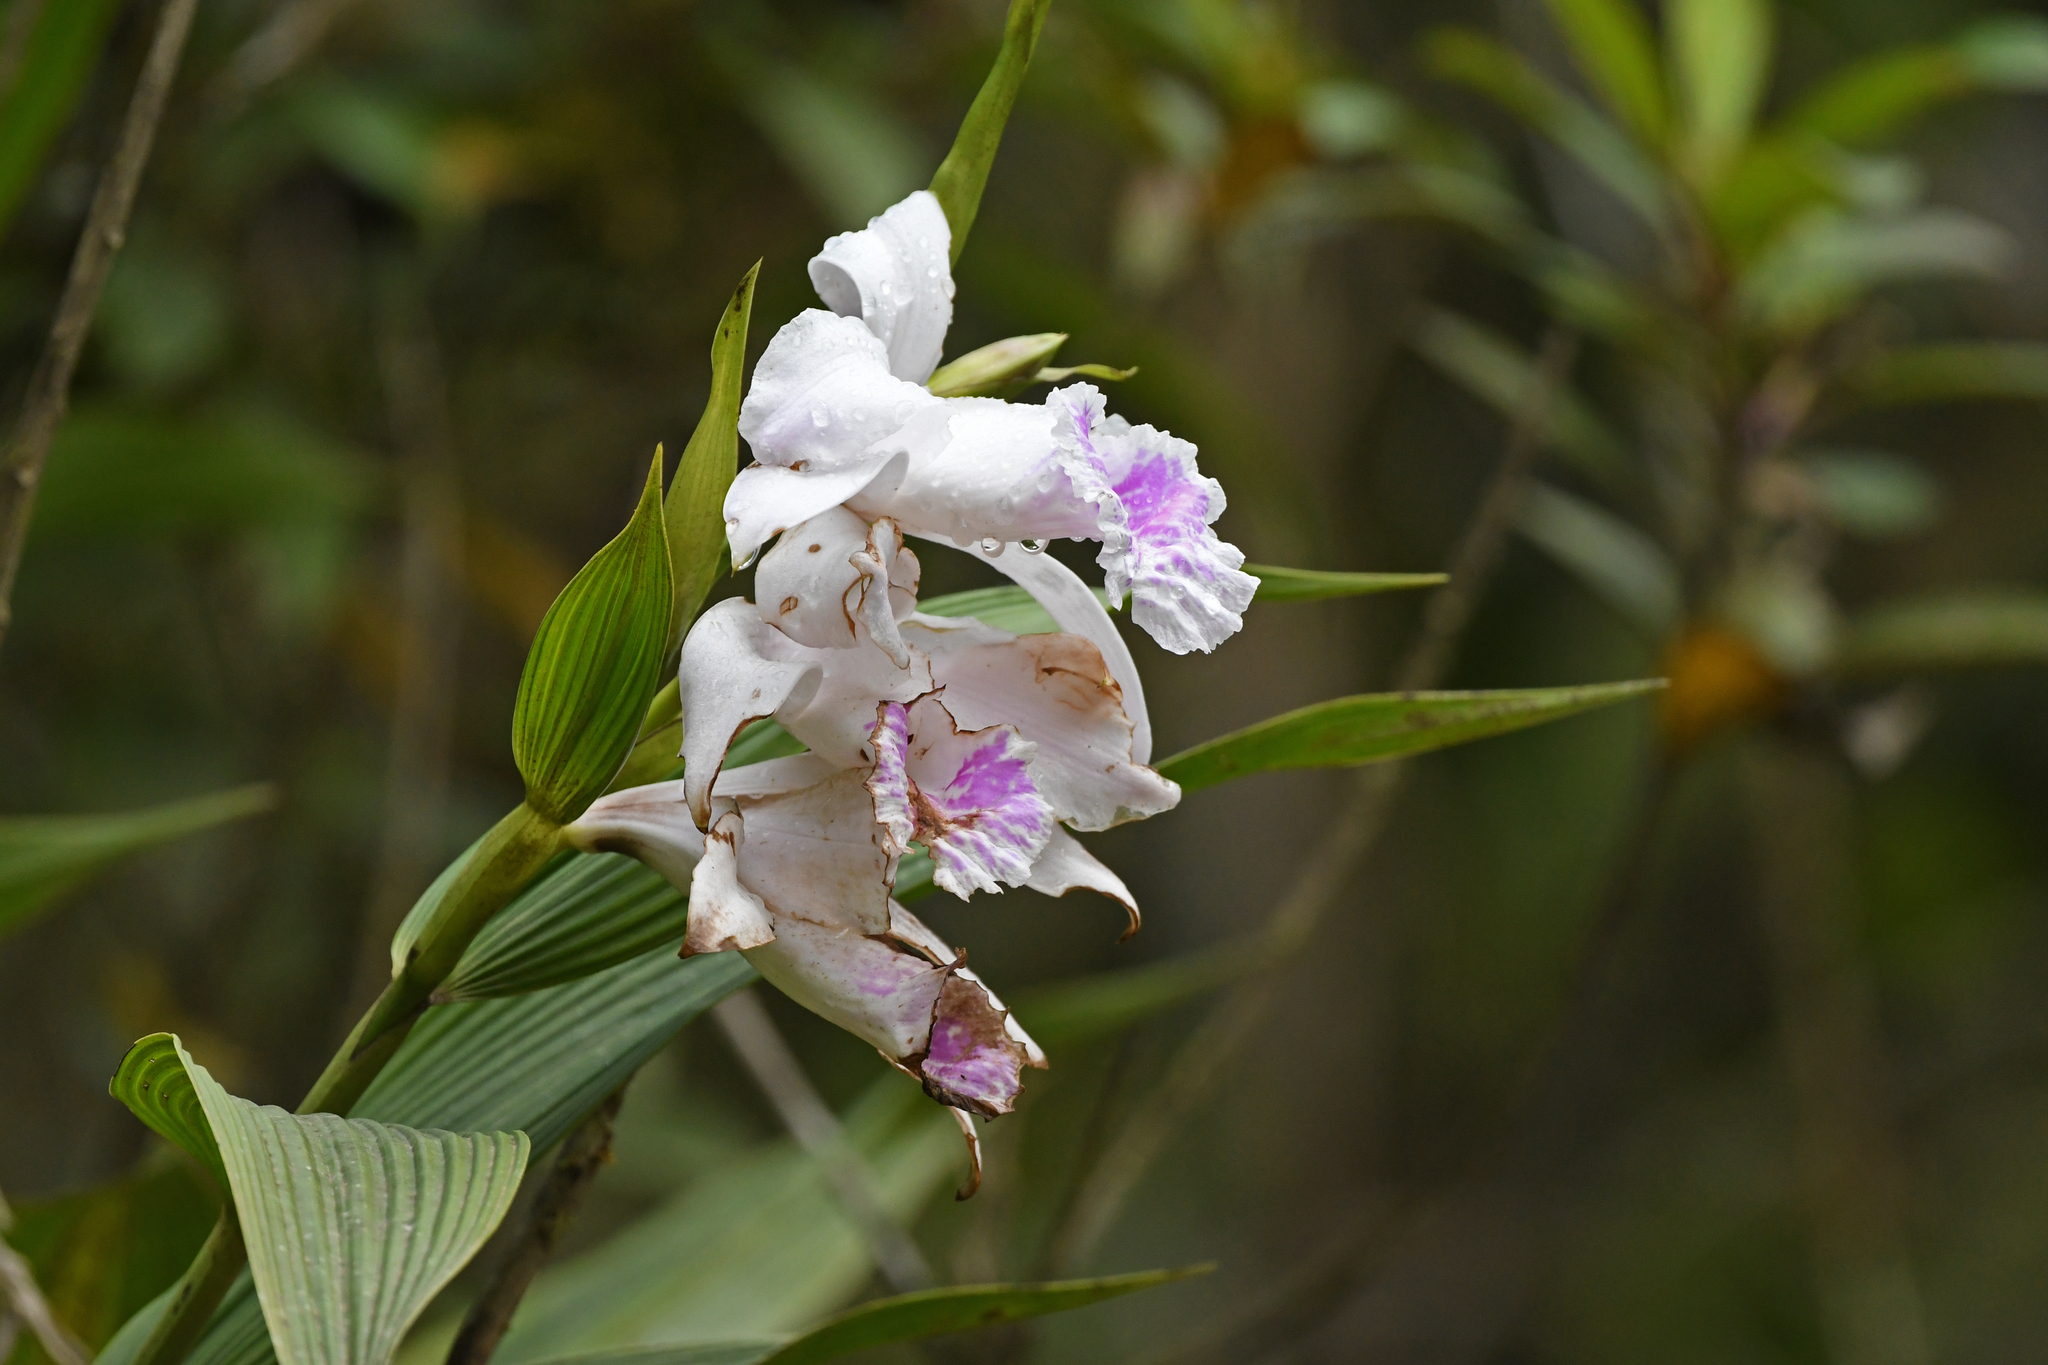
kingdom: Plantae
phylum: Tracheophyta
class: Liliopsida
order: Asparagales
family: Orchidaceae
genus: Sobralia
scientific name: Sobralia rosea
